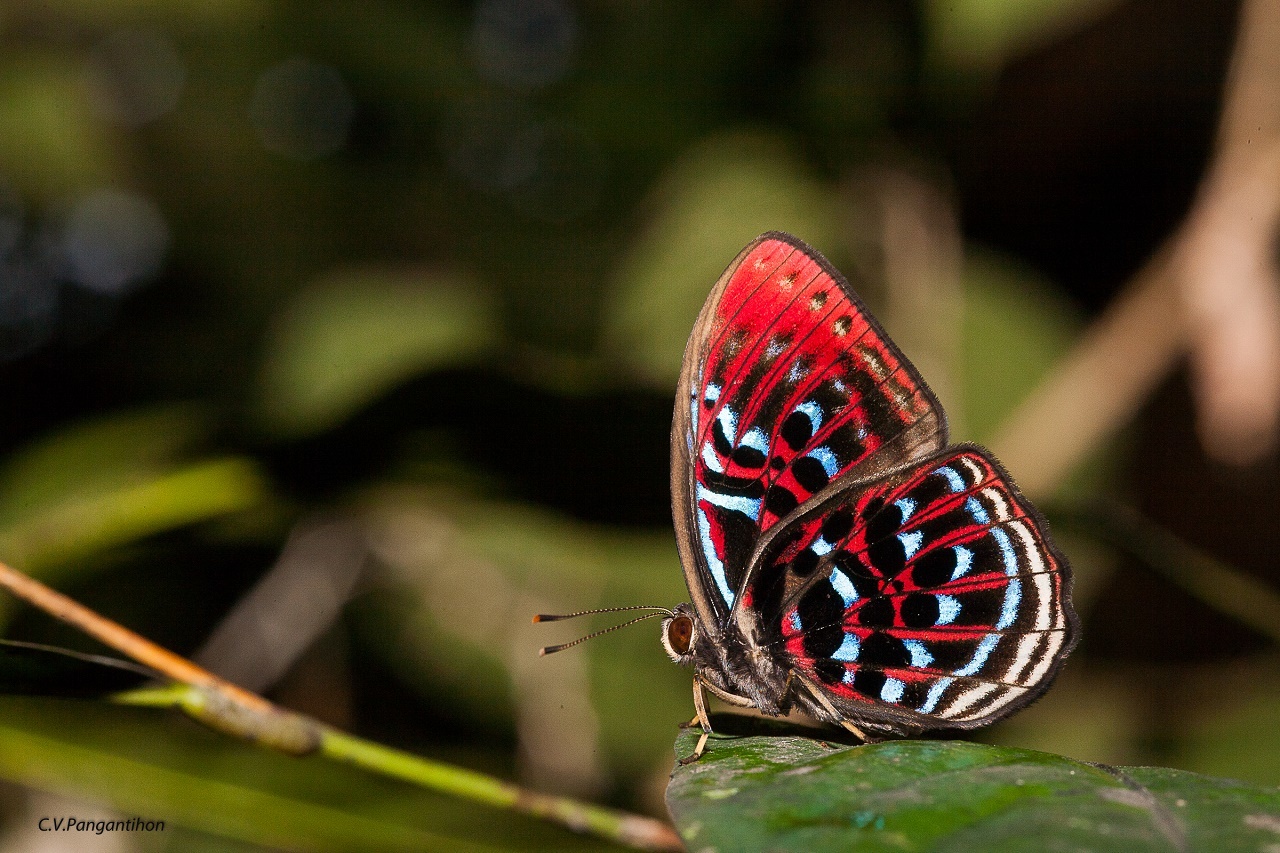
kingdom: Animalia
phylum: Arthropoda
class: Insecta
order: Lepidoptera
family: Riodinidae
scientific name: Riodinidae
